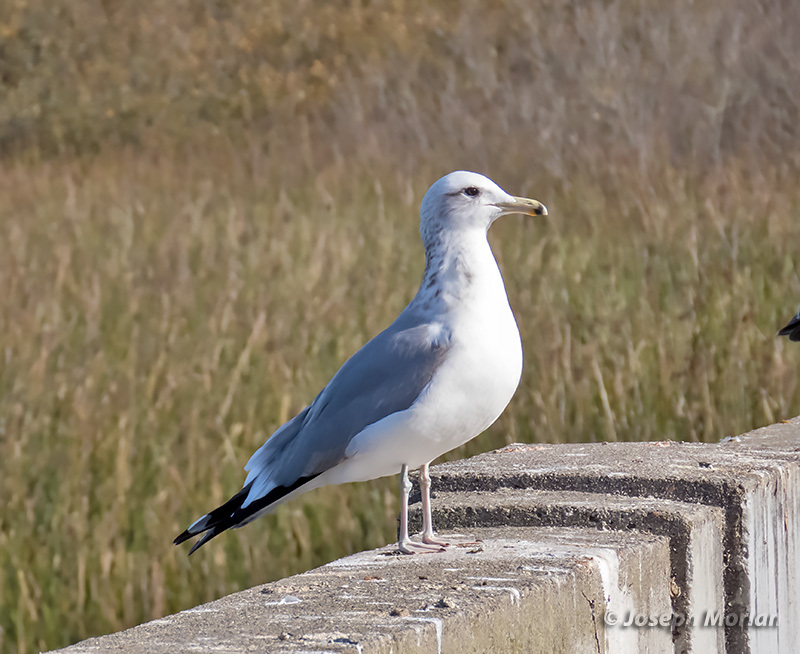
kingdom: Animalia
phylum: Chordata
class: Aves
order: Charadriiformes
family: Laridae
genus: Larus
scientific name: Larus californicus
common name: California gull
